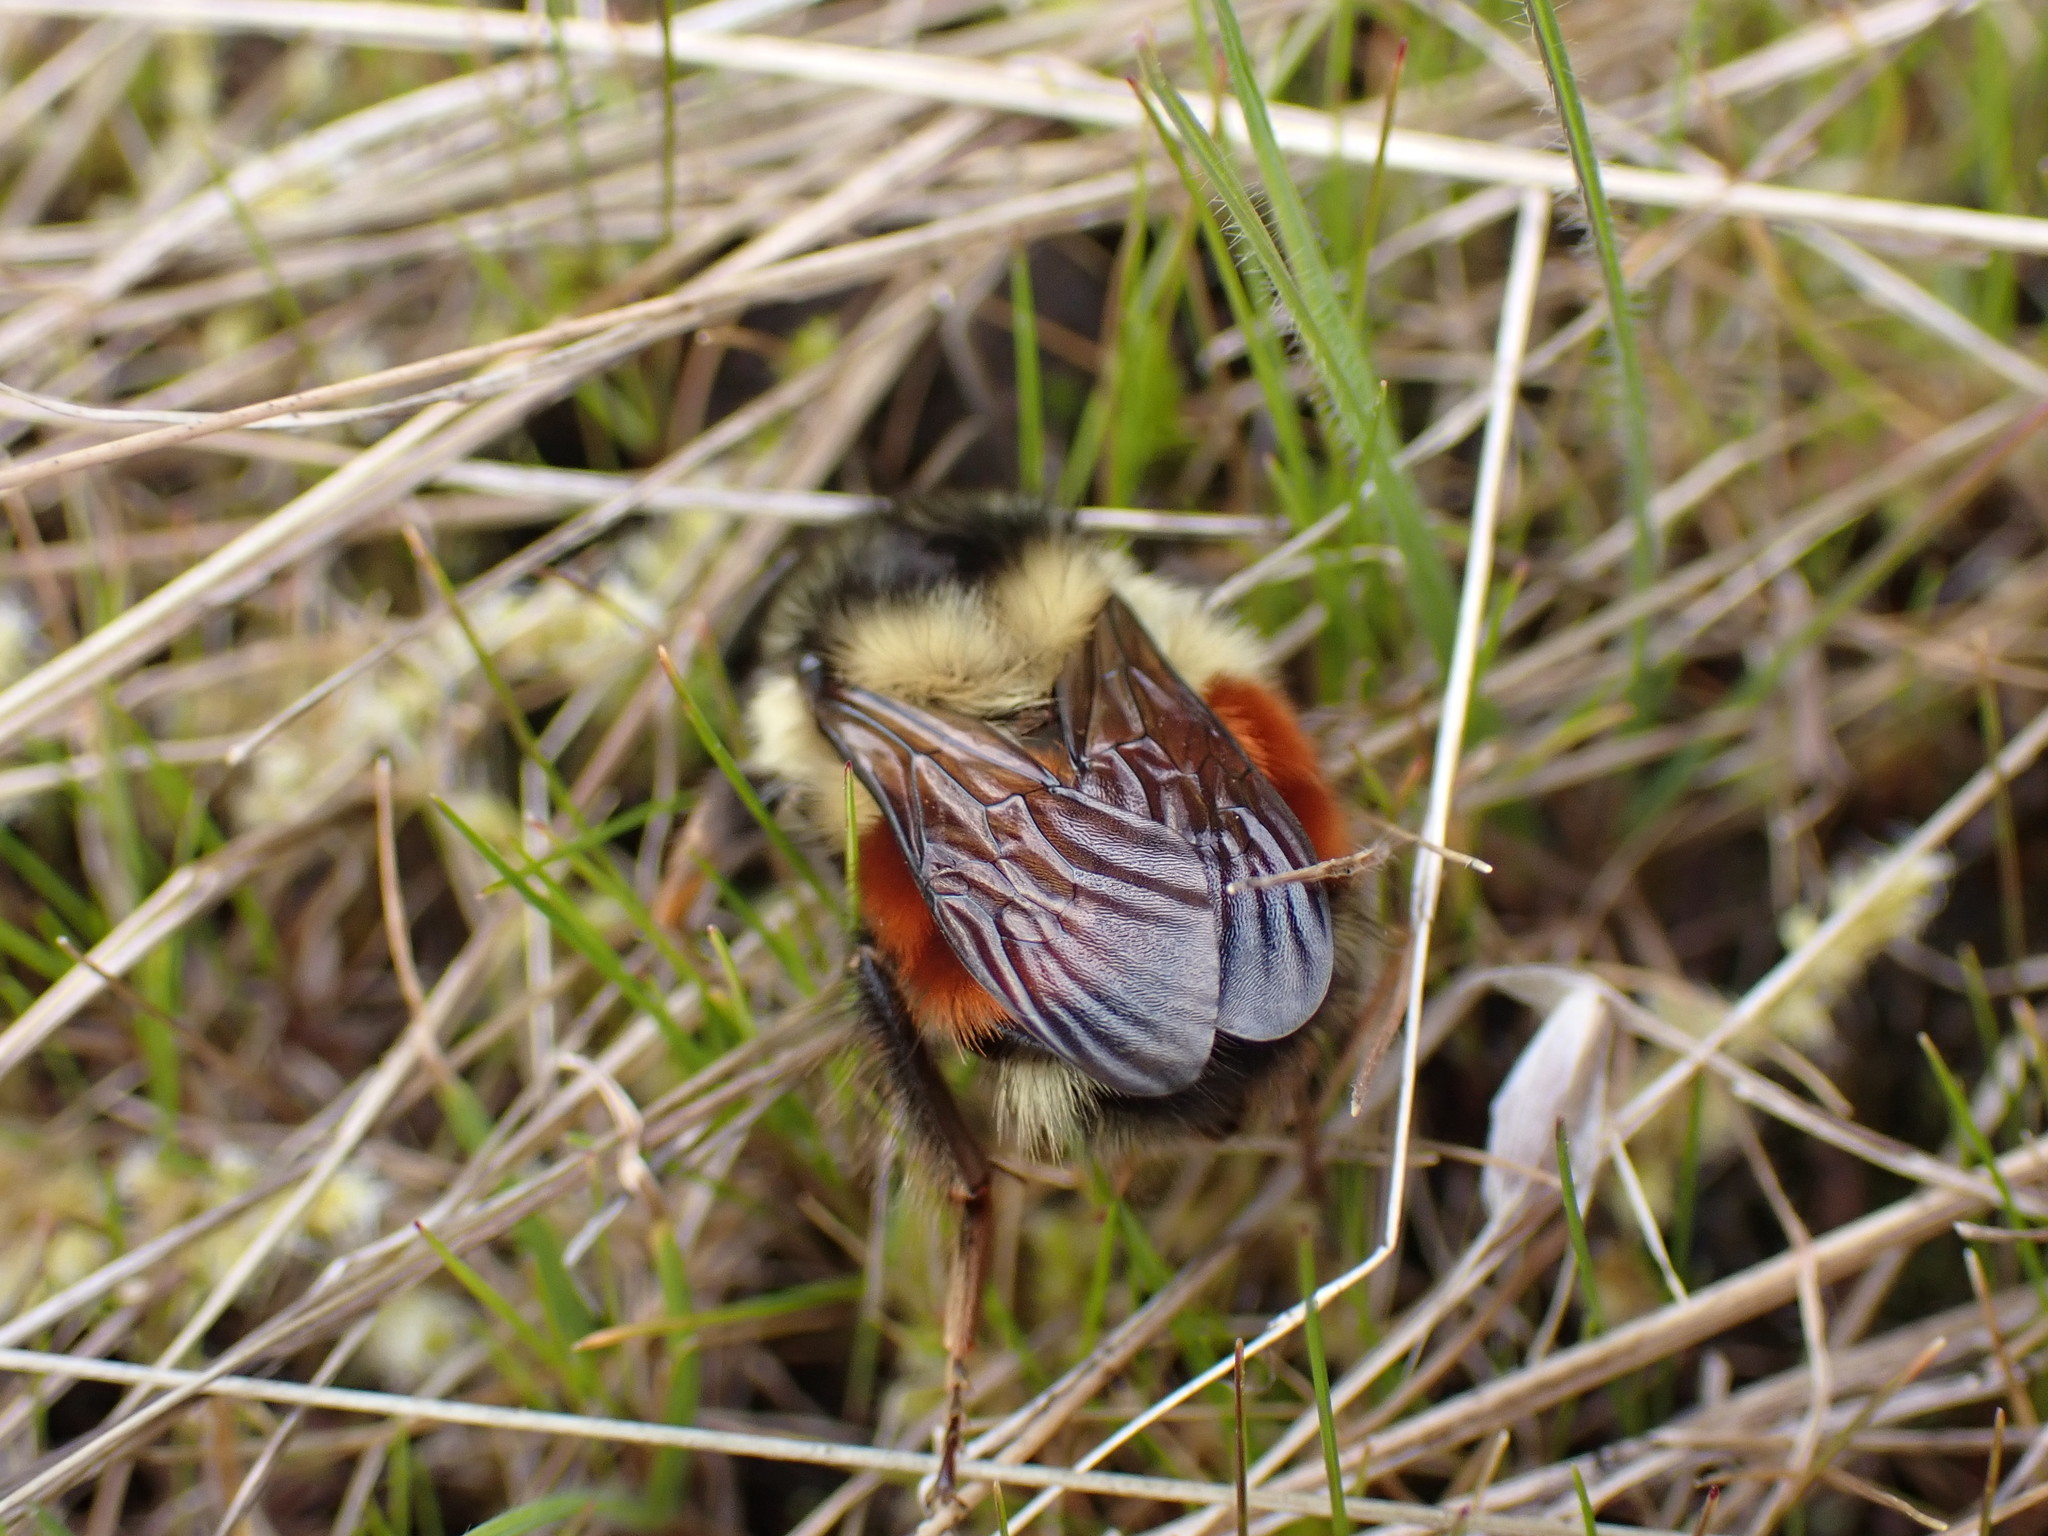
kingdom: Animalia
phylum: Arthropoda
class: Insecta
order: Hymenoptera
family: Apidae
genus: Bombus
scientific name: Bombus melanopygus
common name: Black tail bumble bee
